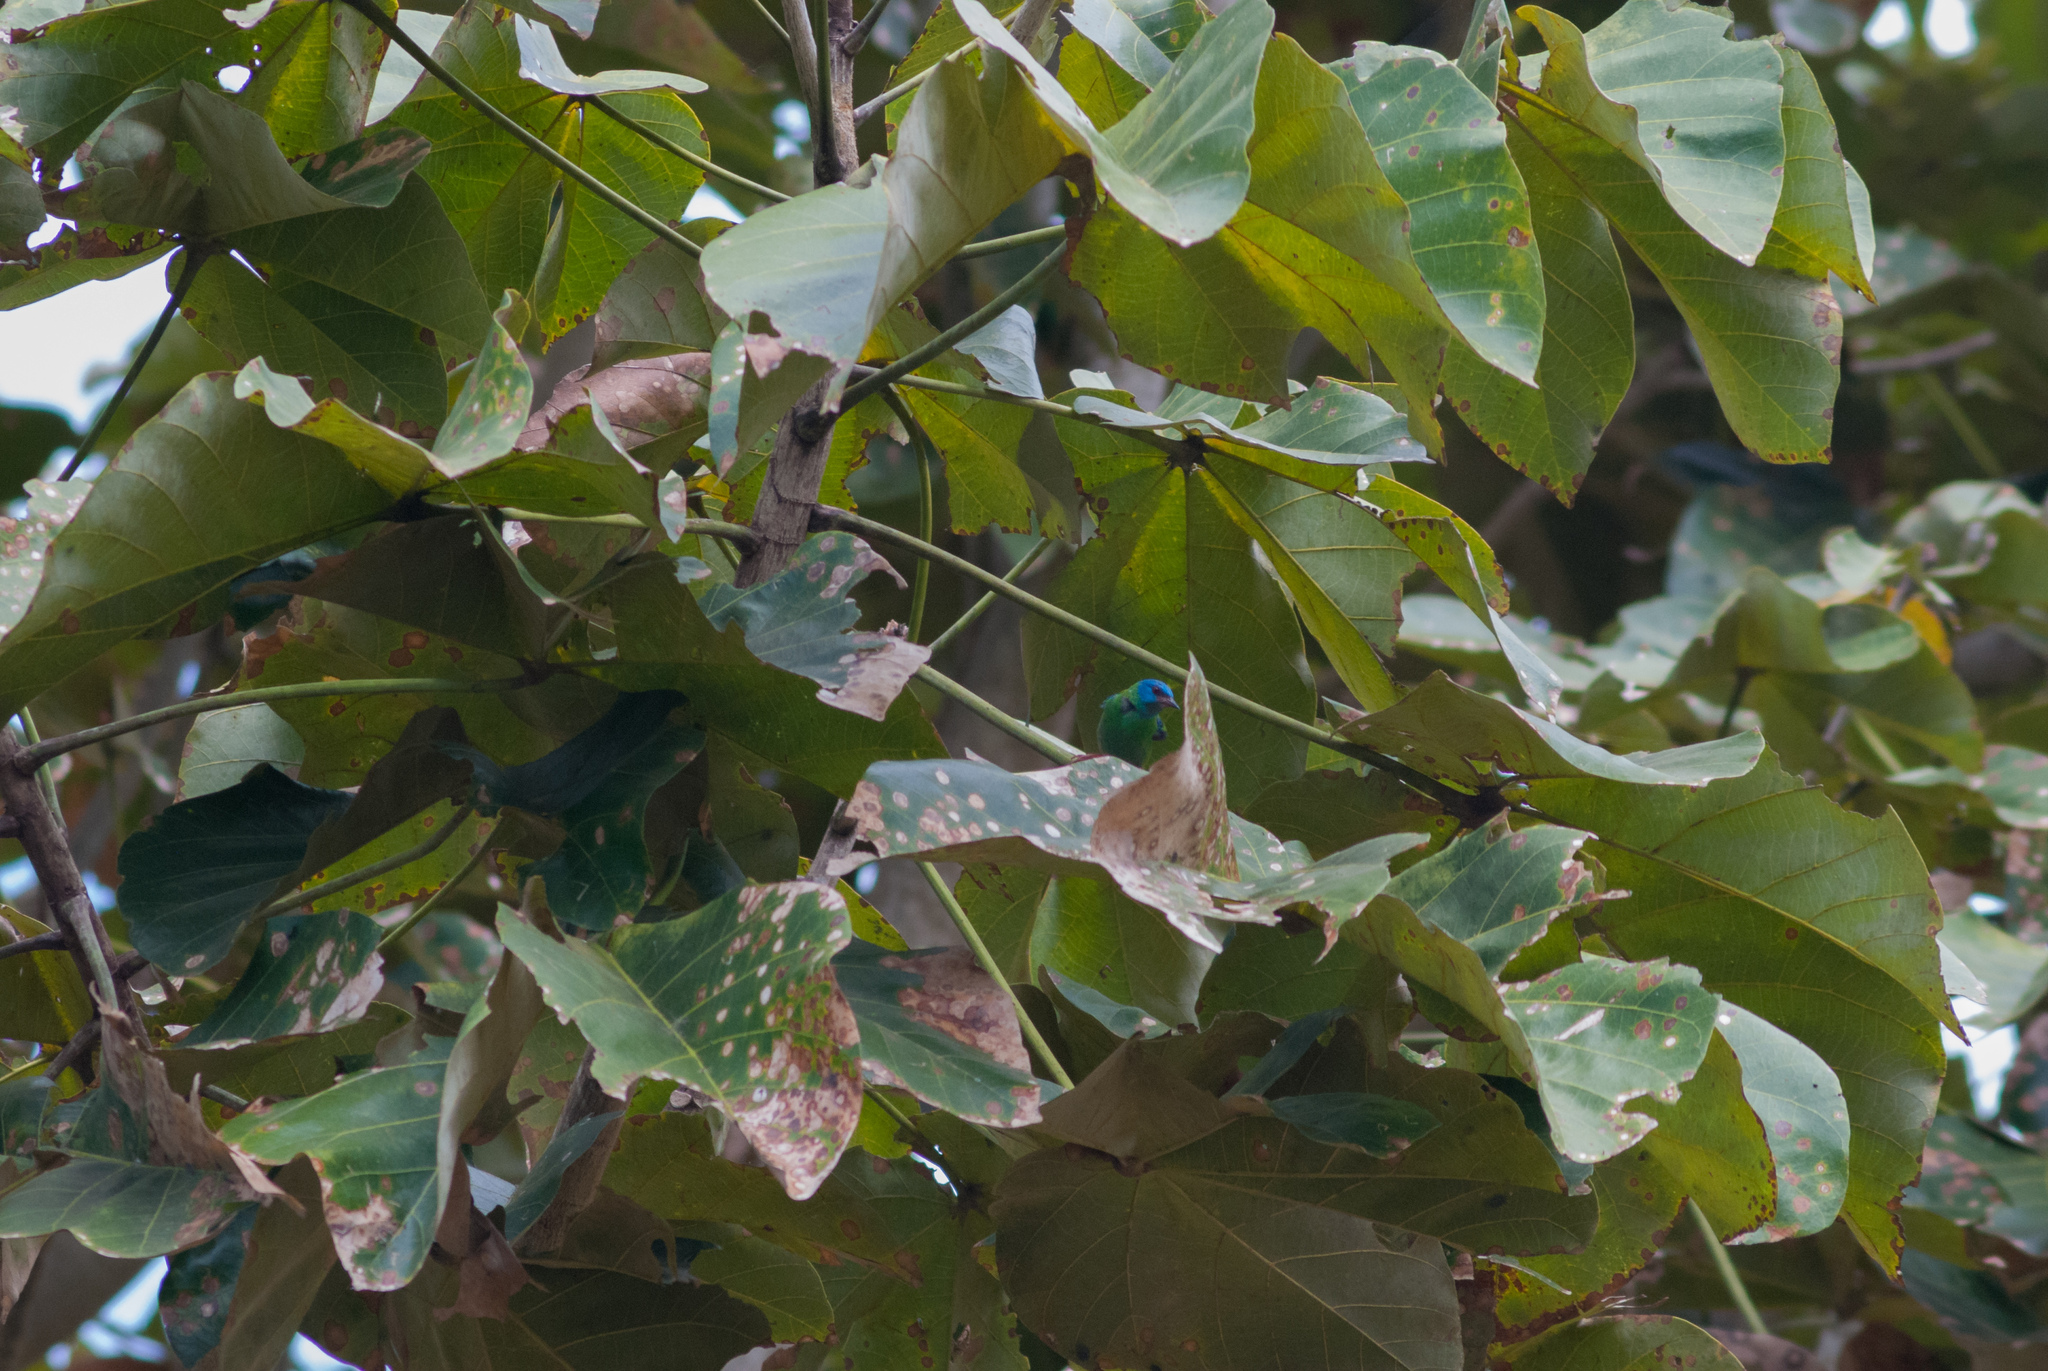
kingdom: Animalia
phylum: Chordata
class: Aves
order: Passeriformes
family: Thraupidae
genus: Dacnis
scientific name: Dacnis cayana
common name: Blue dacnis
